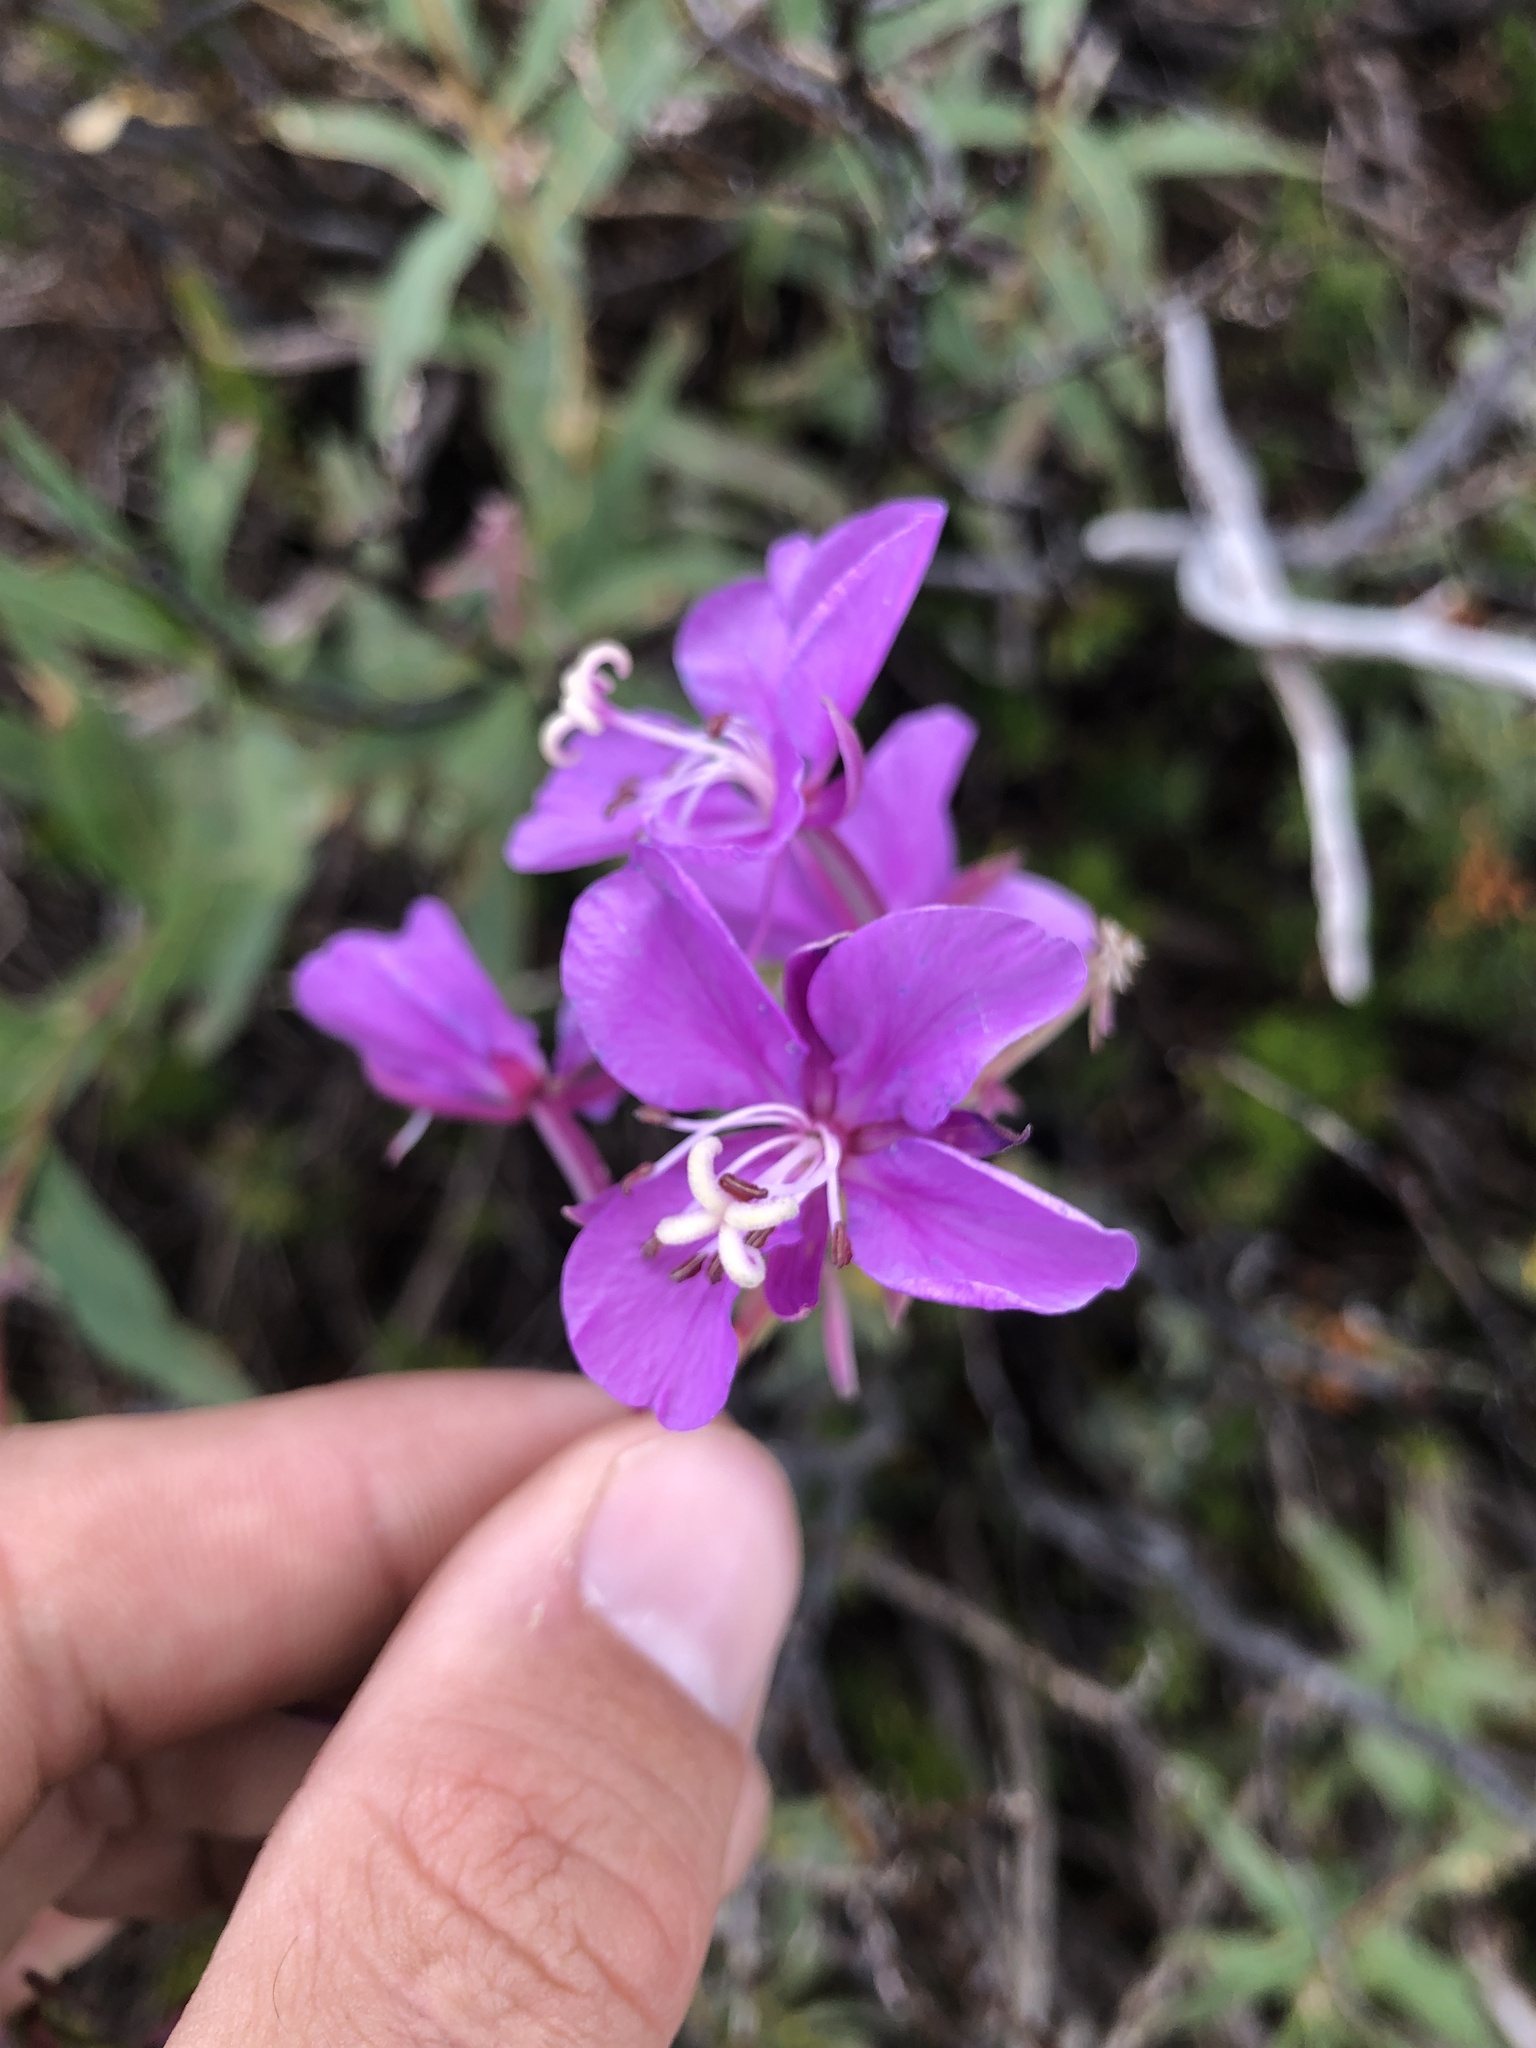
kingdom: Plantae
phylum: Tracheophyta
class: Magnoliopsida
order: Myrtales
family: Onagraceae
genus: Chamaenerion
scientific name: Chamaenerion angustifolium
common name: Fireweed
